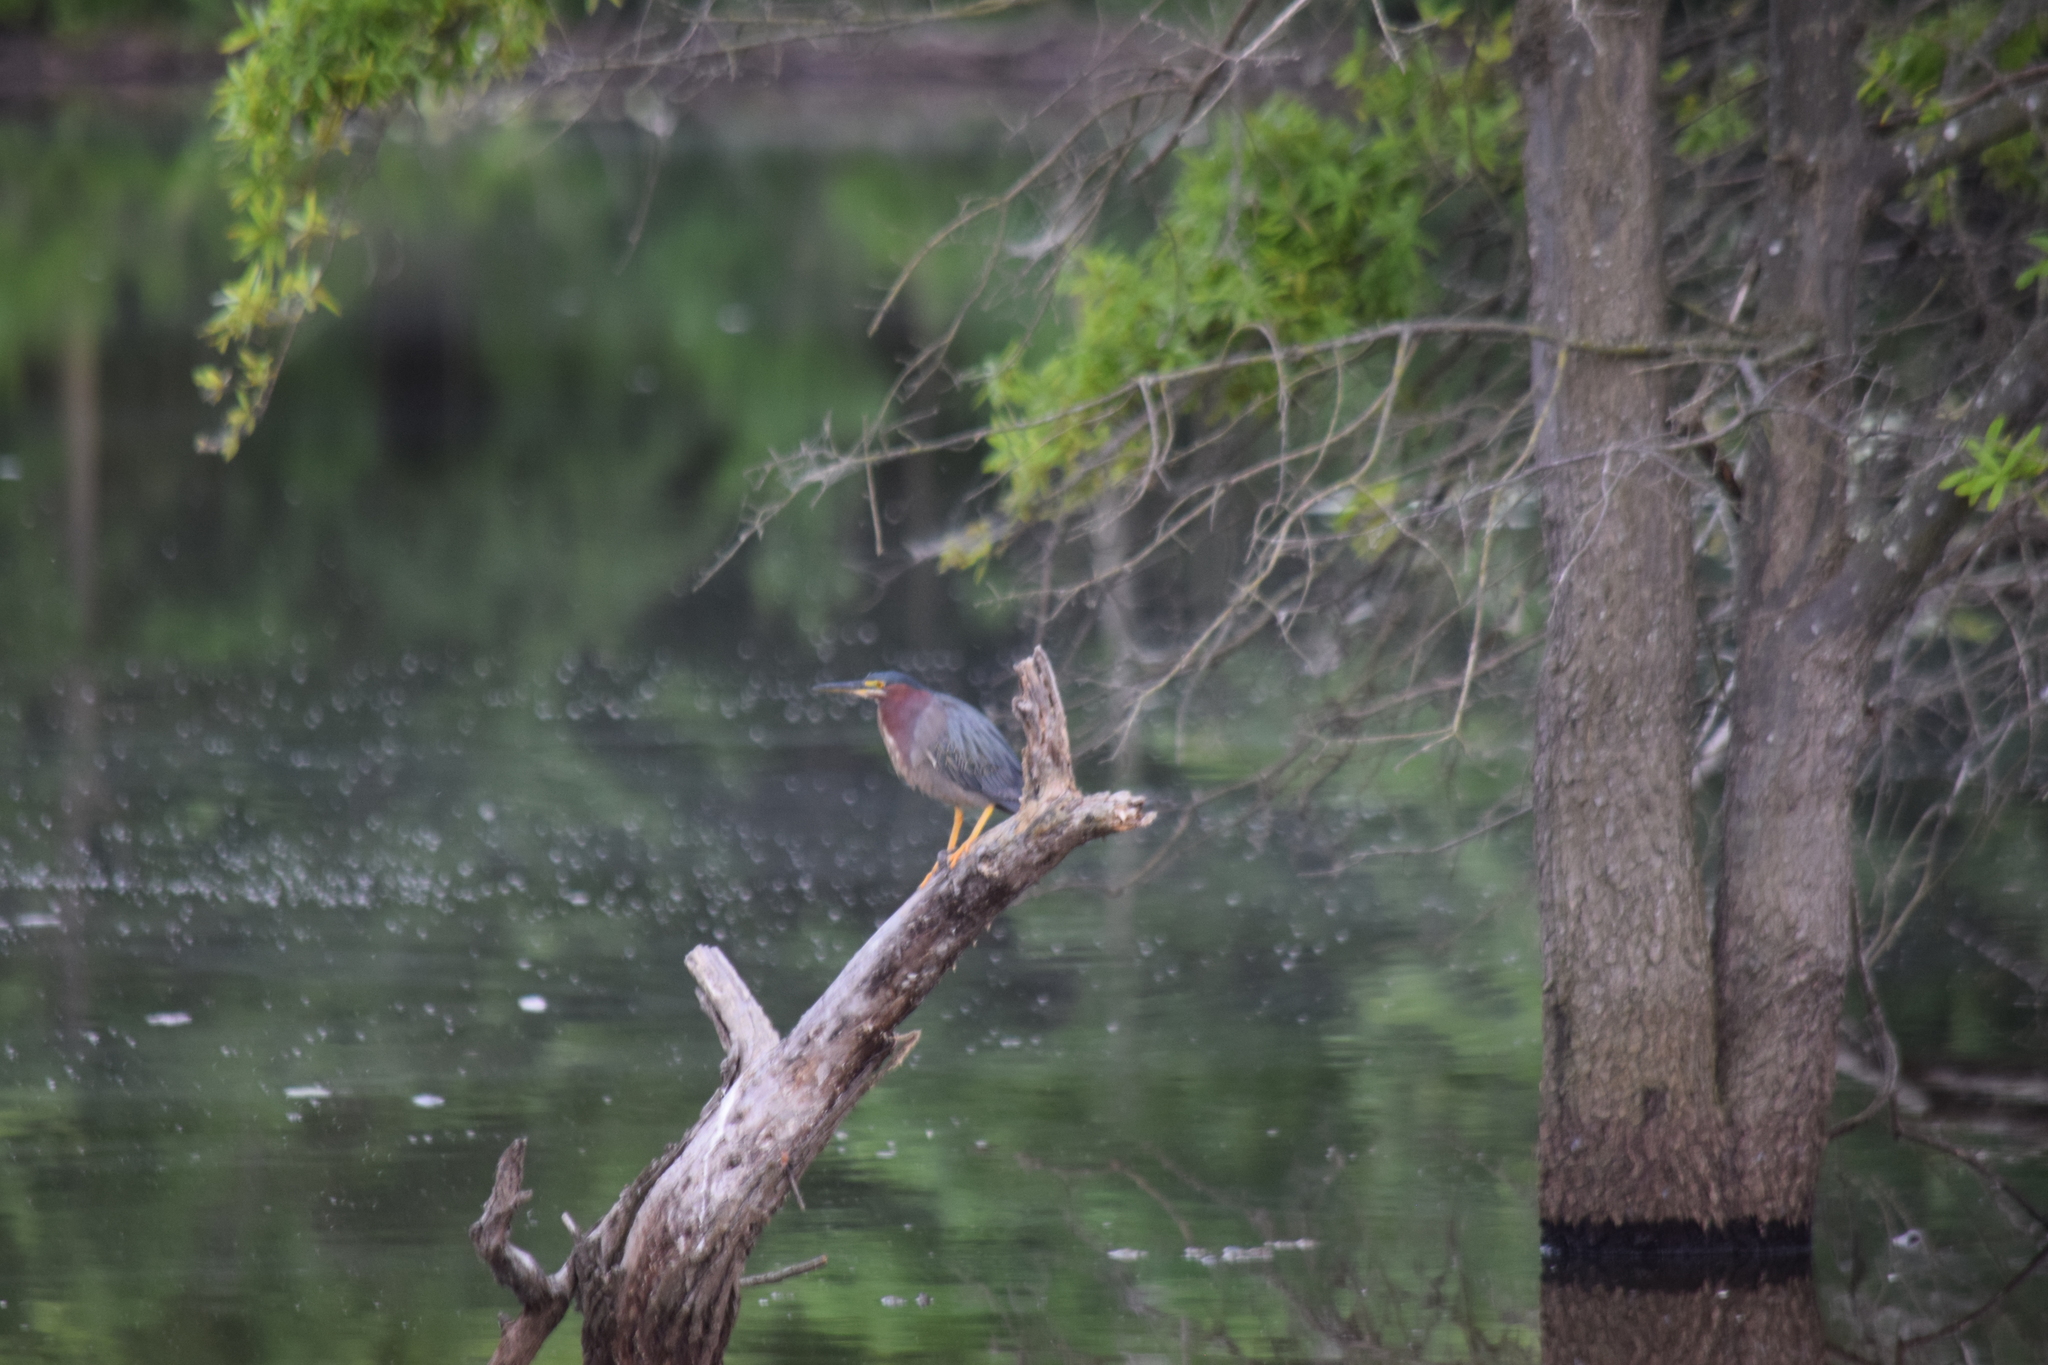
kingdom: Animalia
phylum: Chordata
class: Aves
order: Pelecaniformes
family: Ardeidae
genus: Butorides
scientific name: Butorides virescens
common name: Green heron
